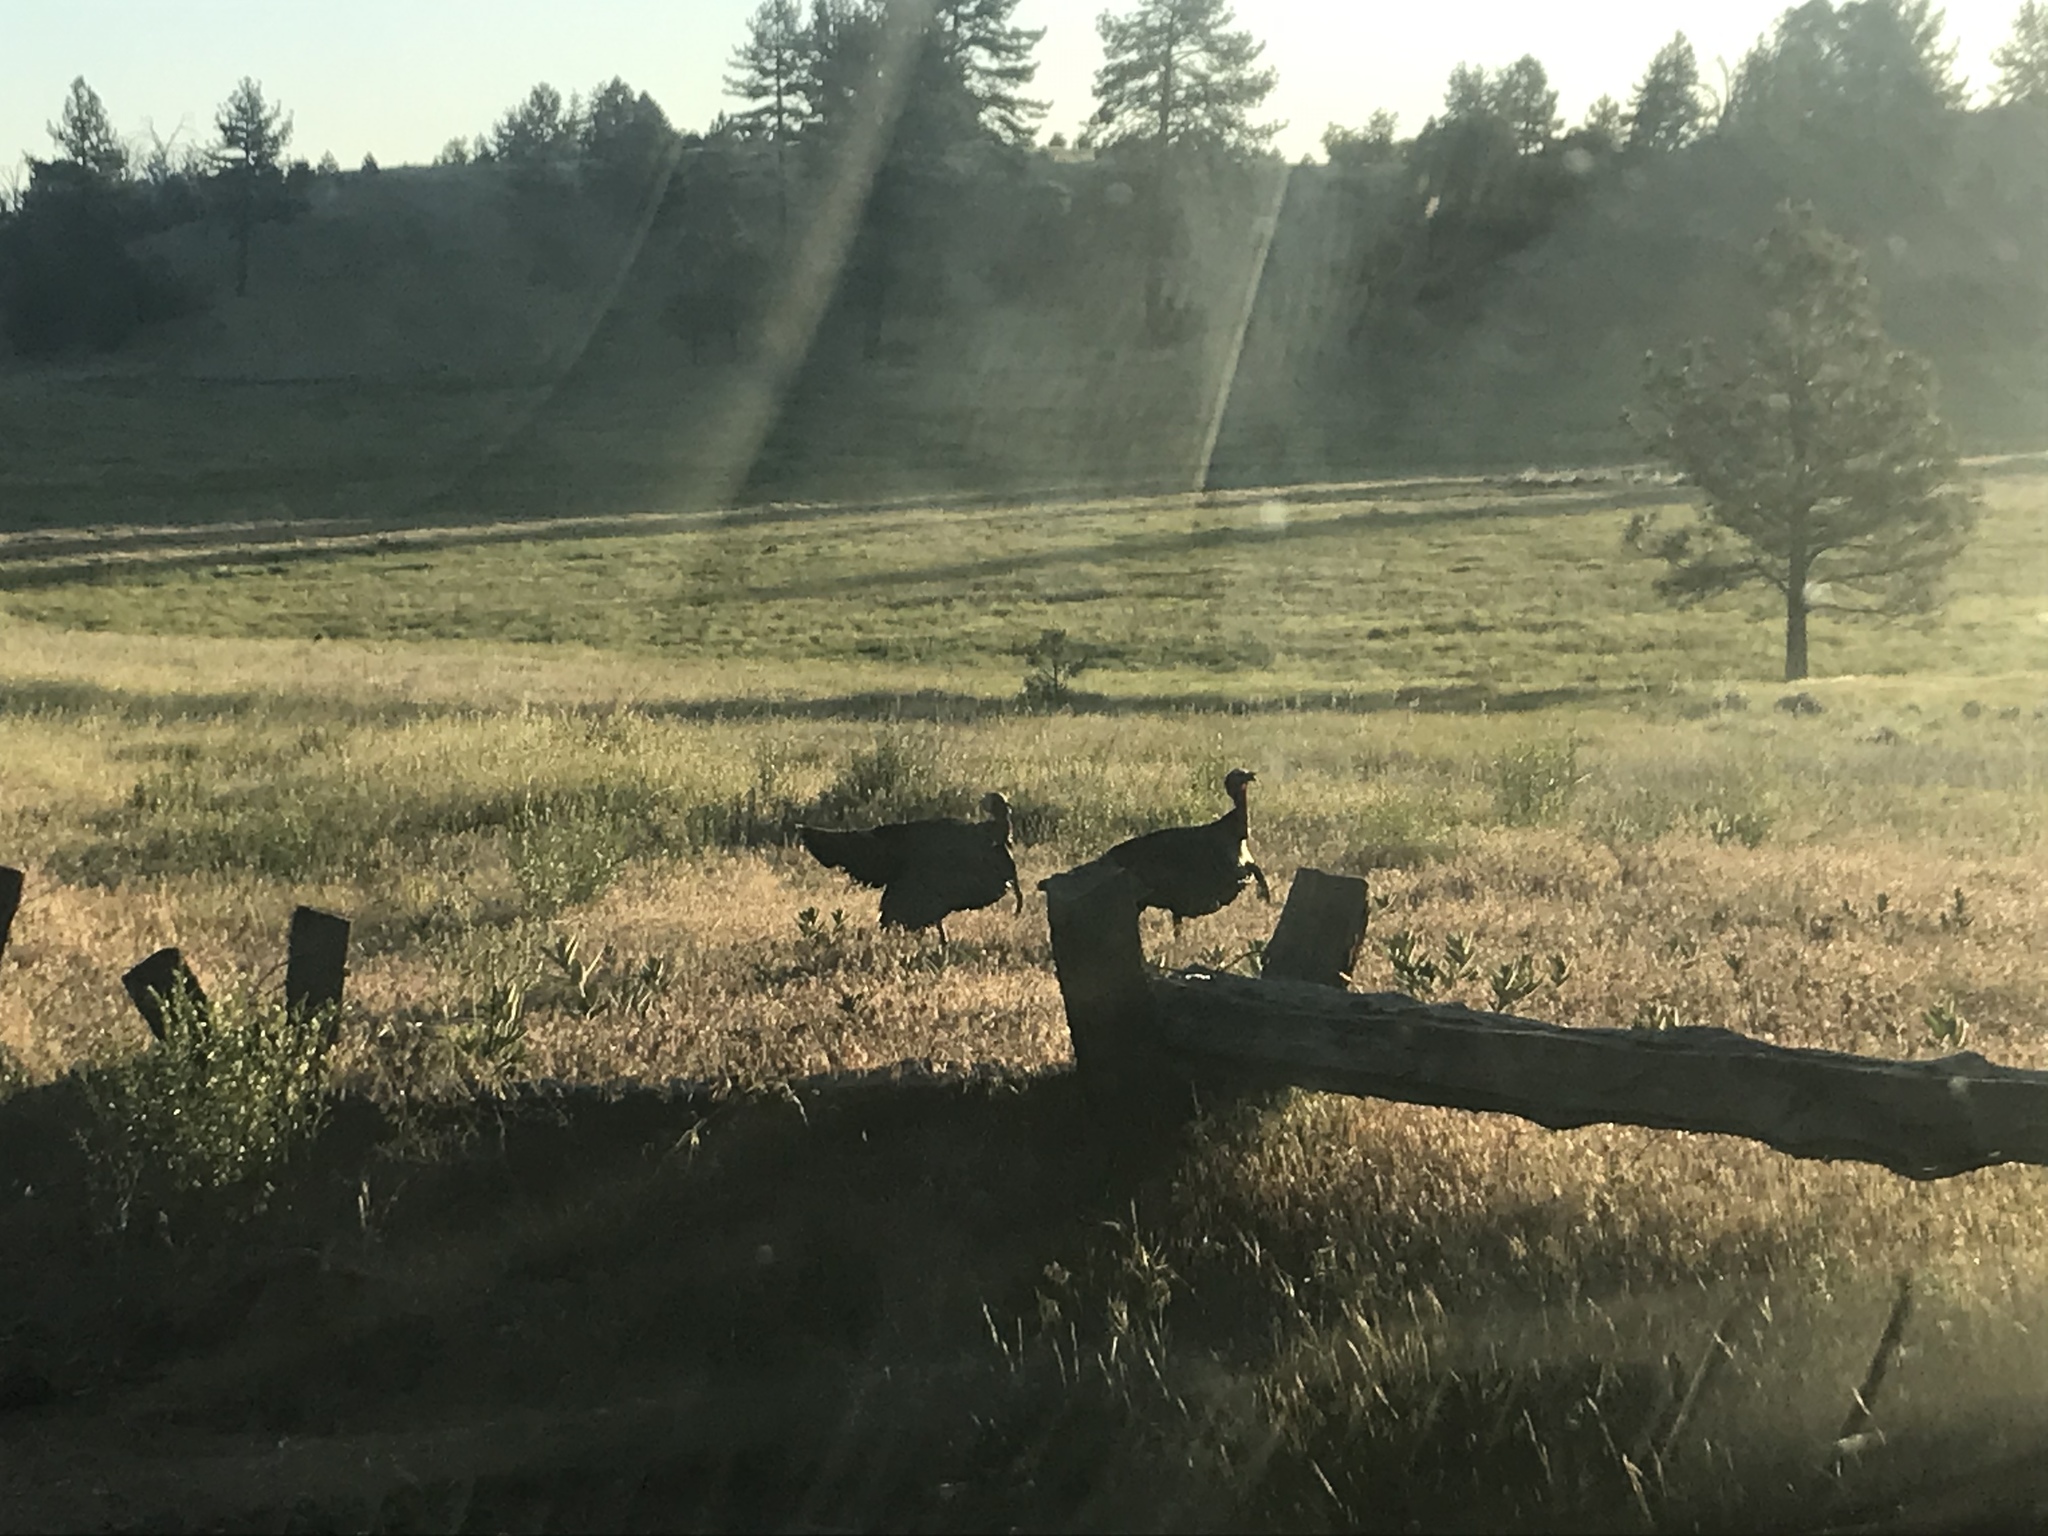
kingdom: Animalia
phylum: Chordata
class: Aves
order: Galliformes
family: Phasianidae
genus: Meleagris
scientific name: Meleagris gallopavo
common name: Wild turkey
